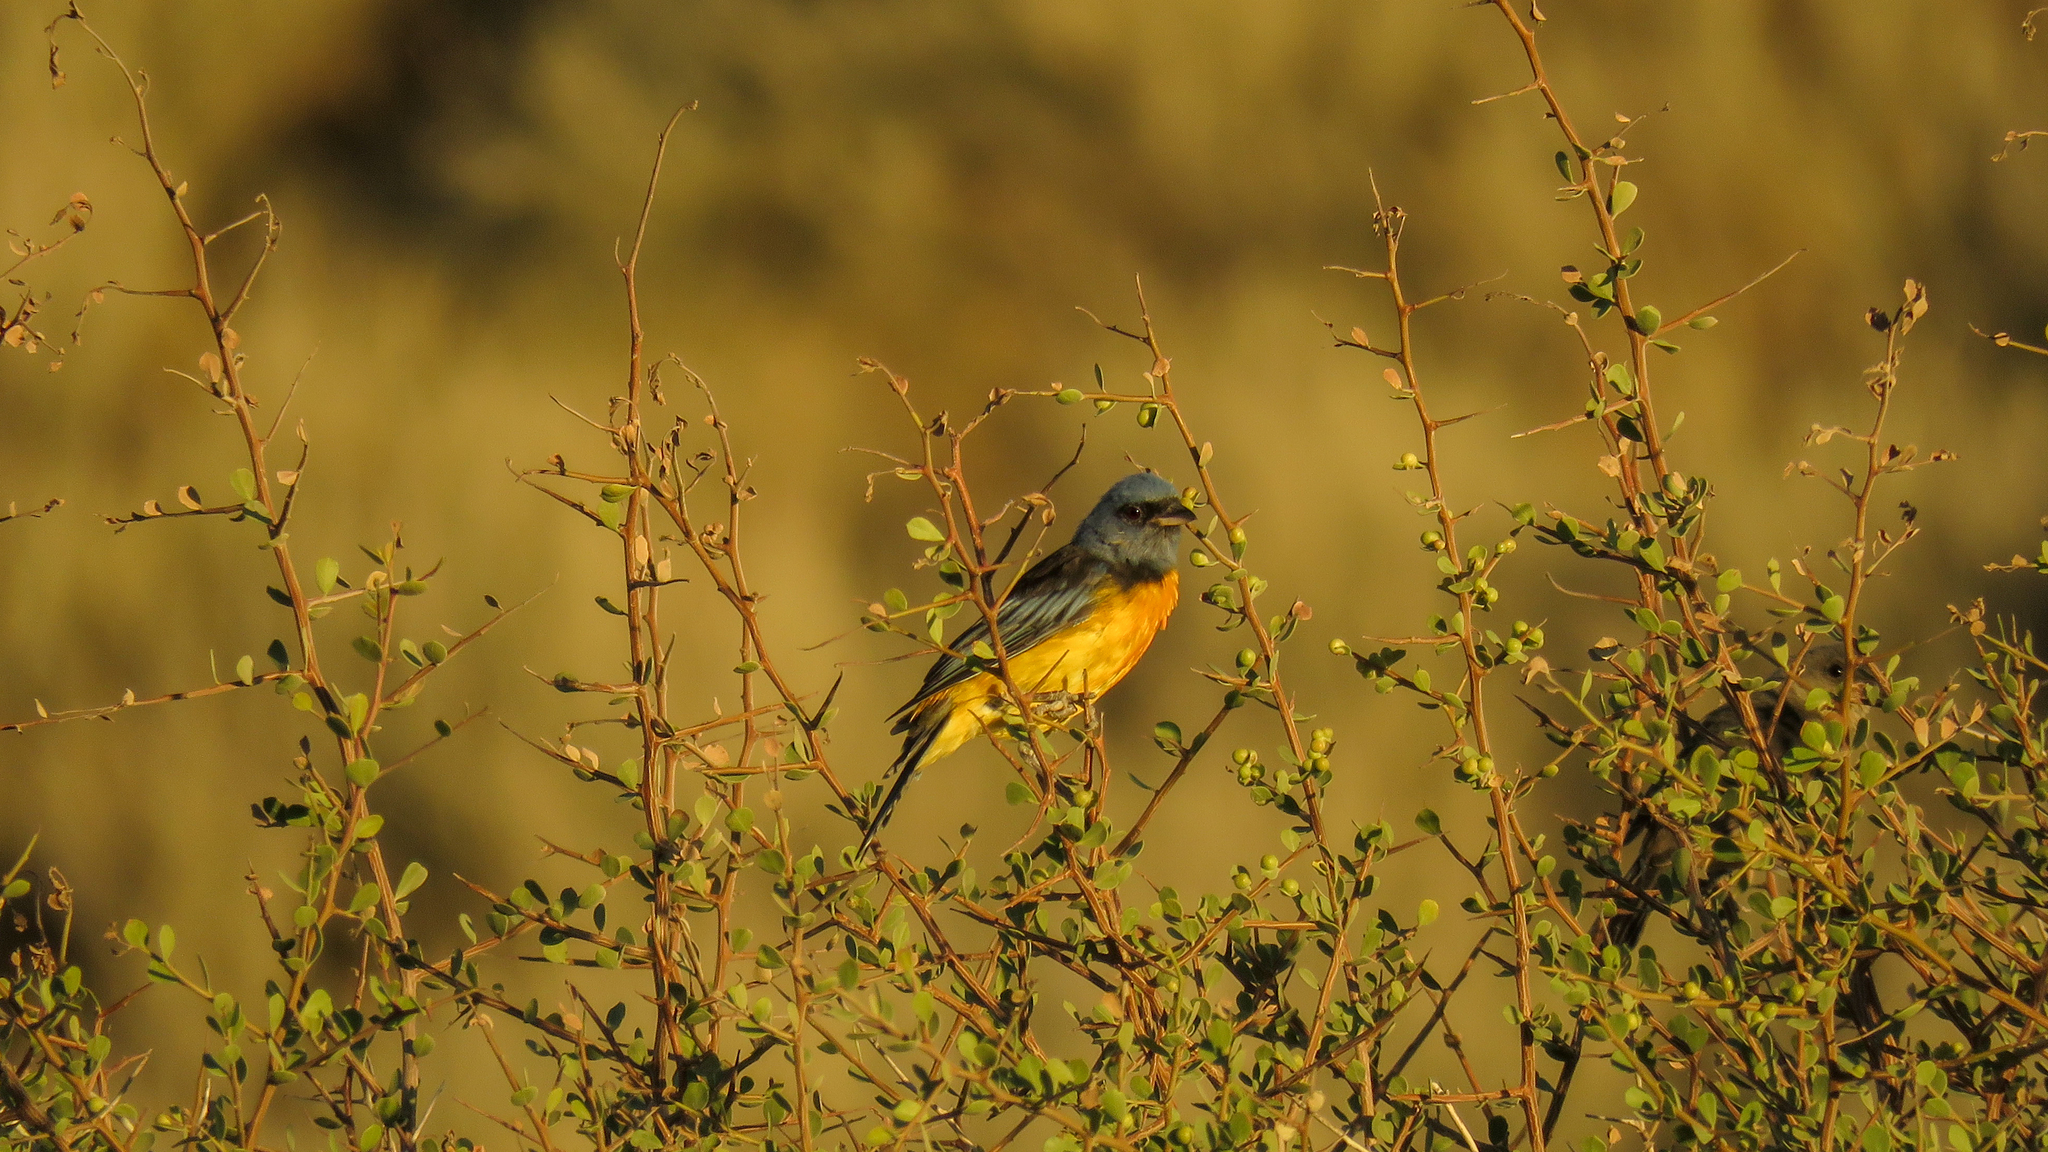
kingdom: Animalia
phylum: Chordata
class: Aves
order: Passeriformes
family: Thraupidae
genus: Rauenia
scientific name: Rauenia bonariensis
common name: Blue-and-yellow tanager
